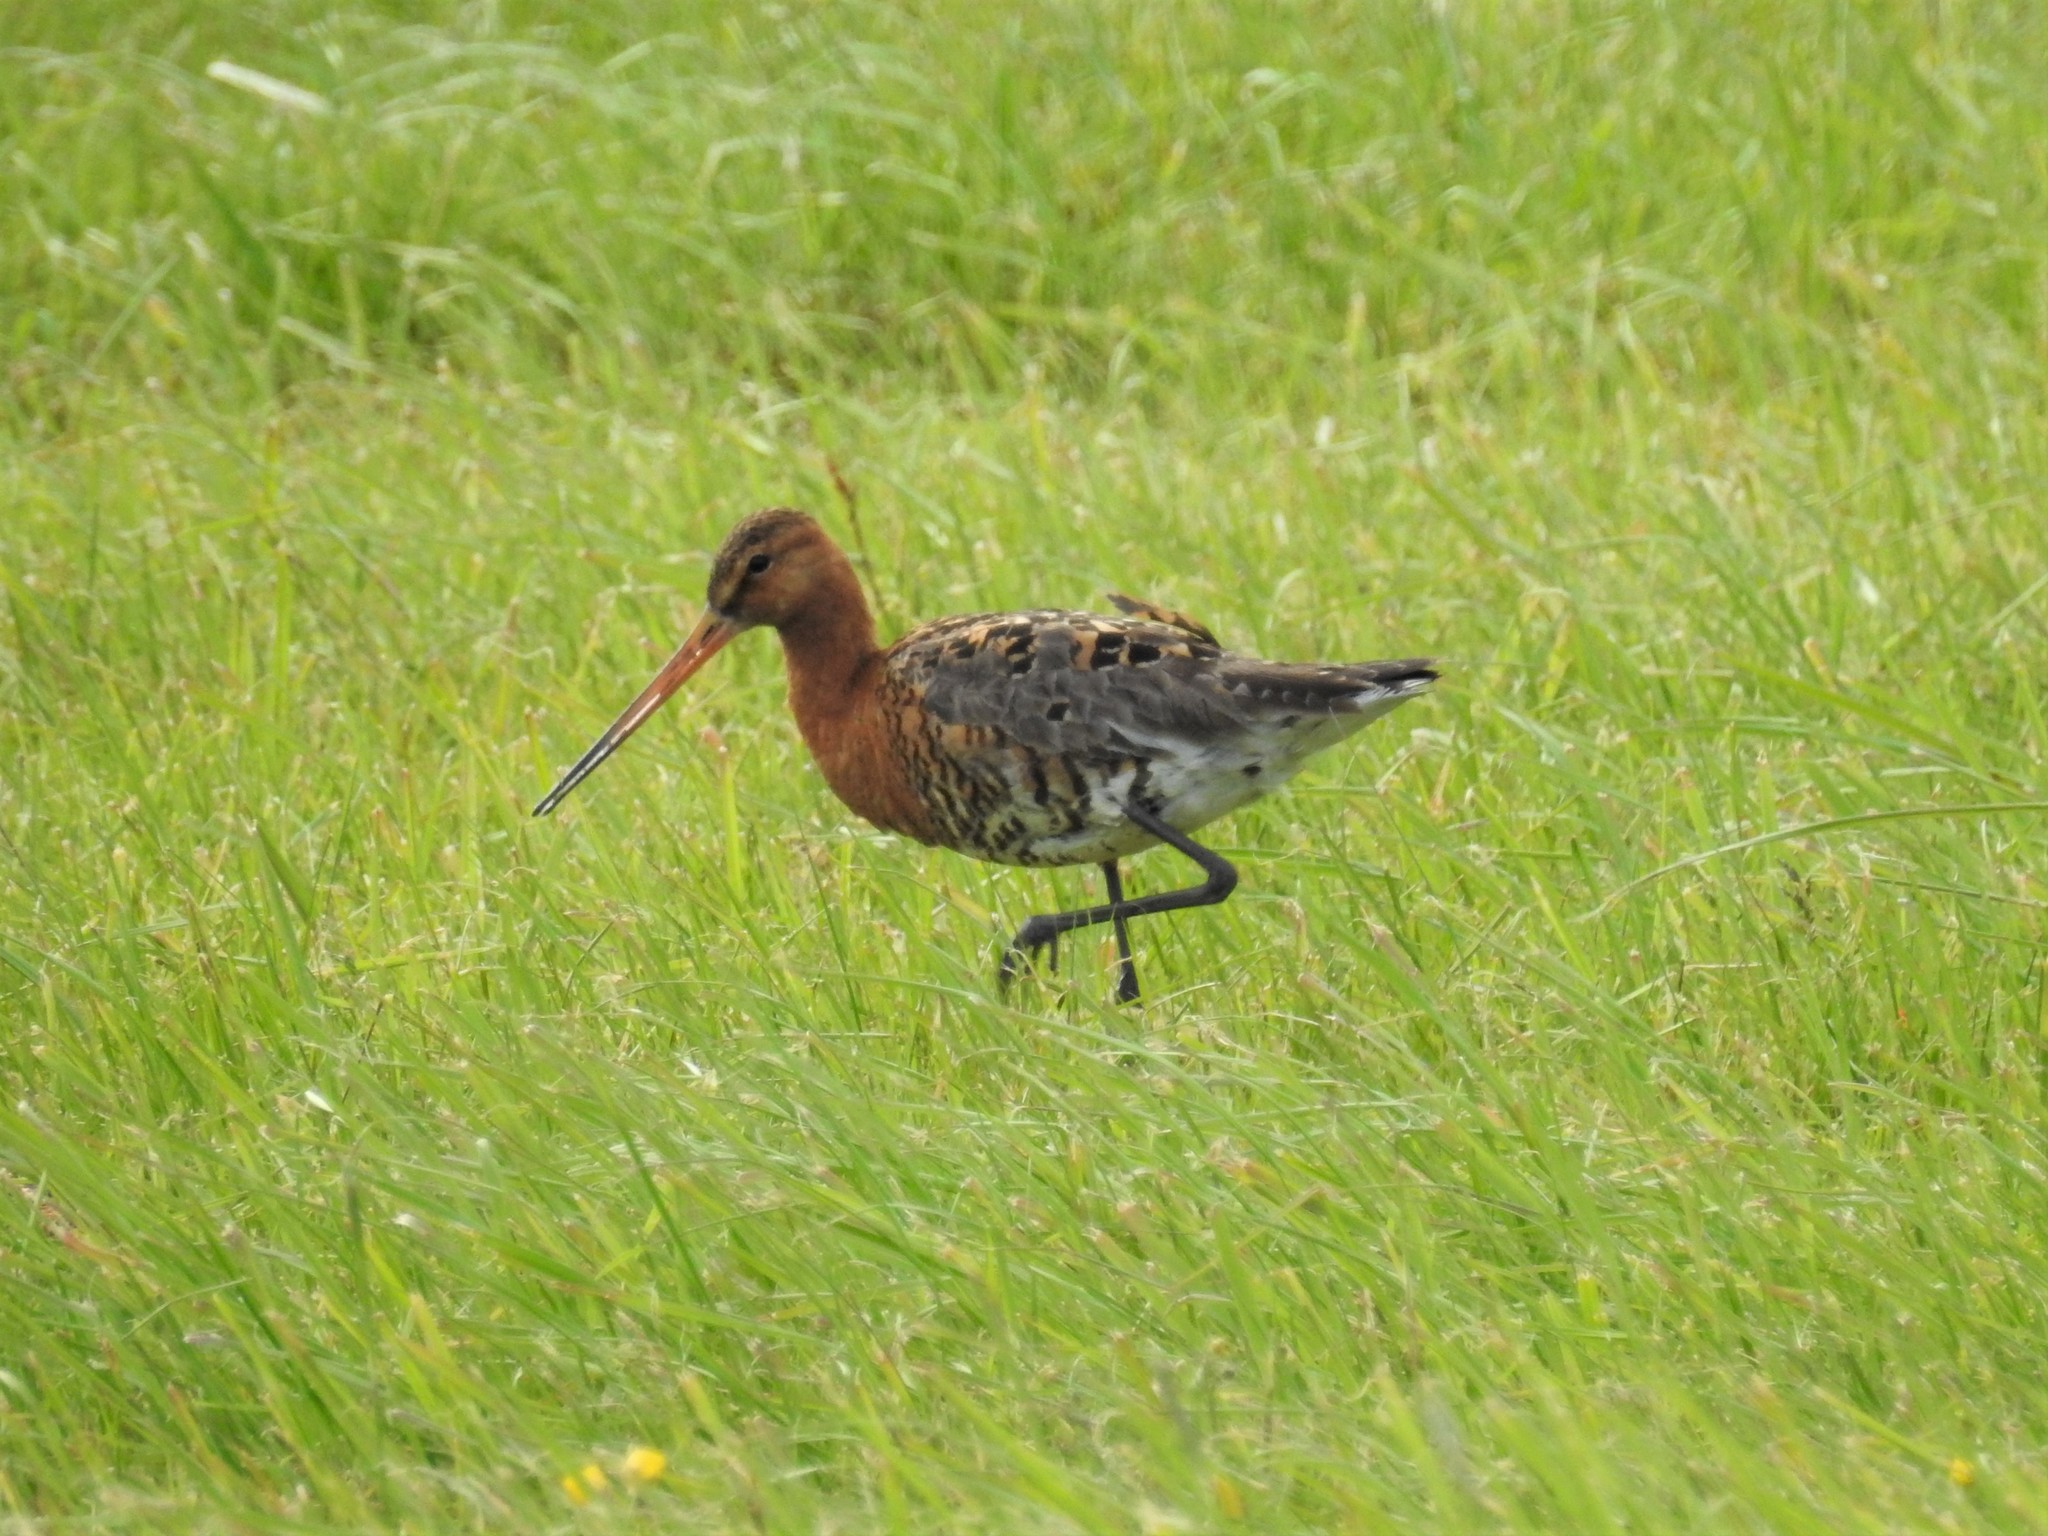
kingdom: Animalia
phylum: Chordata
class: Aves
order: Charadriiformes
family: Scolopacidae
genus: Limosa
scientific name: Limosa limosa
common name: Black-tailed godwit
